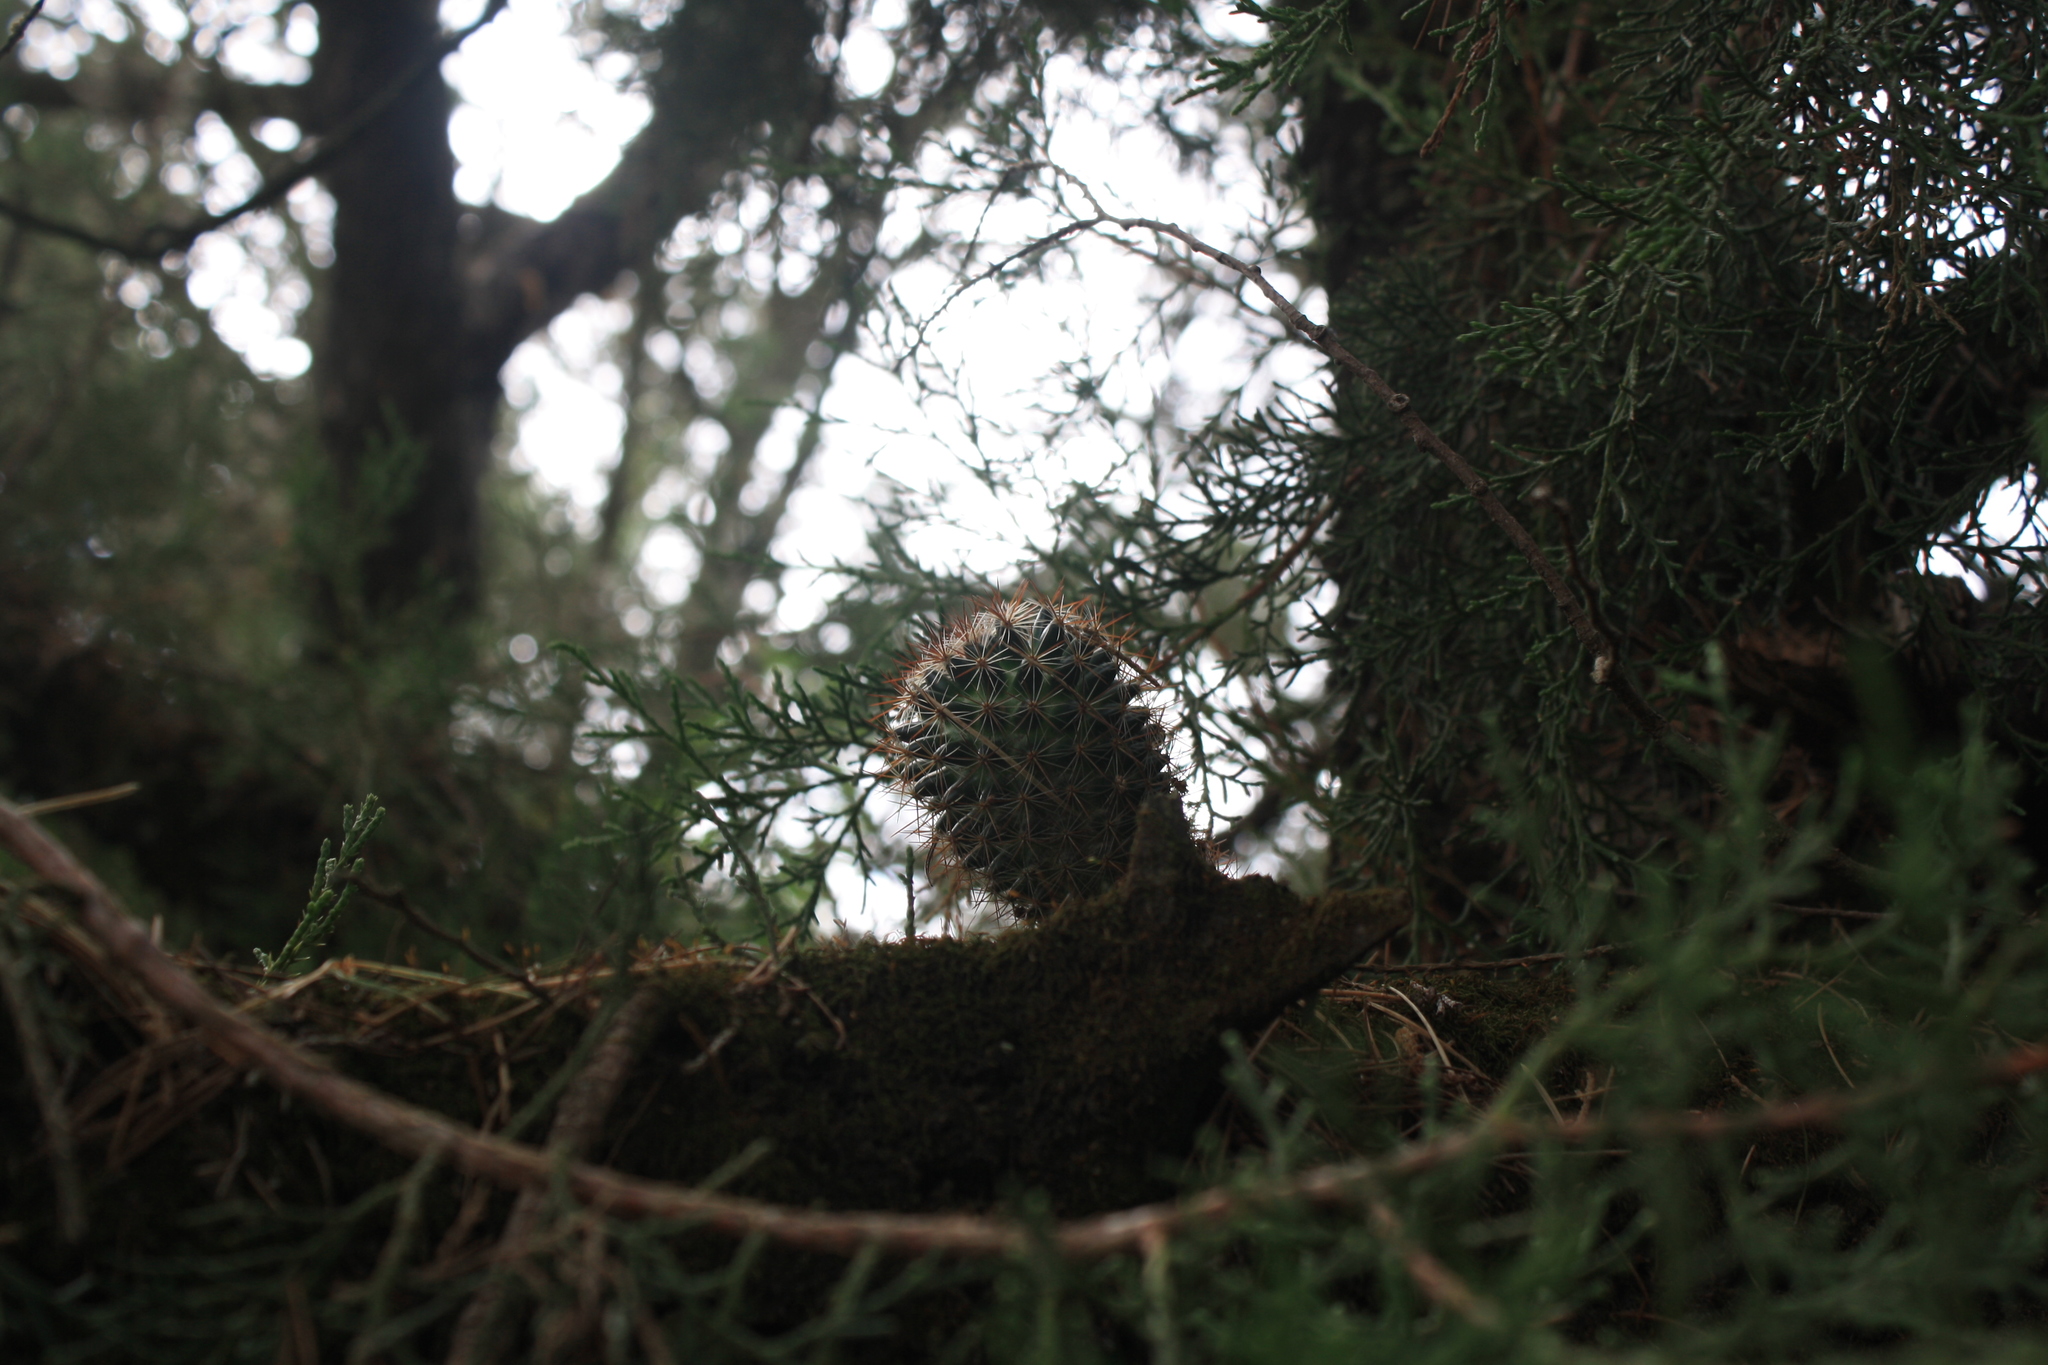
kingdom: Plantae
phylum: Tracheophyta
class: Magnoliopsida
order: Caryophyllales
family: Cactaceae
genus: Mammillaria
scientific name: Mammillaria discolor
